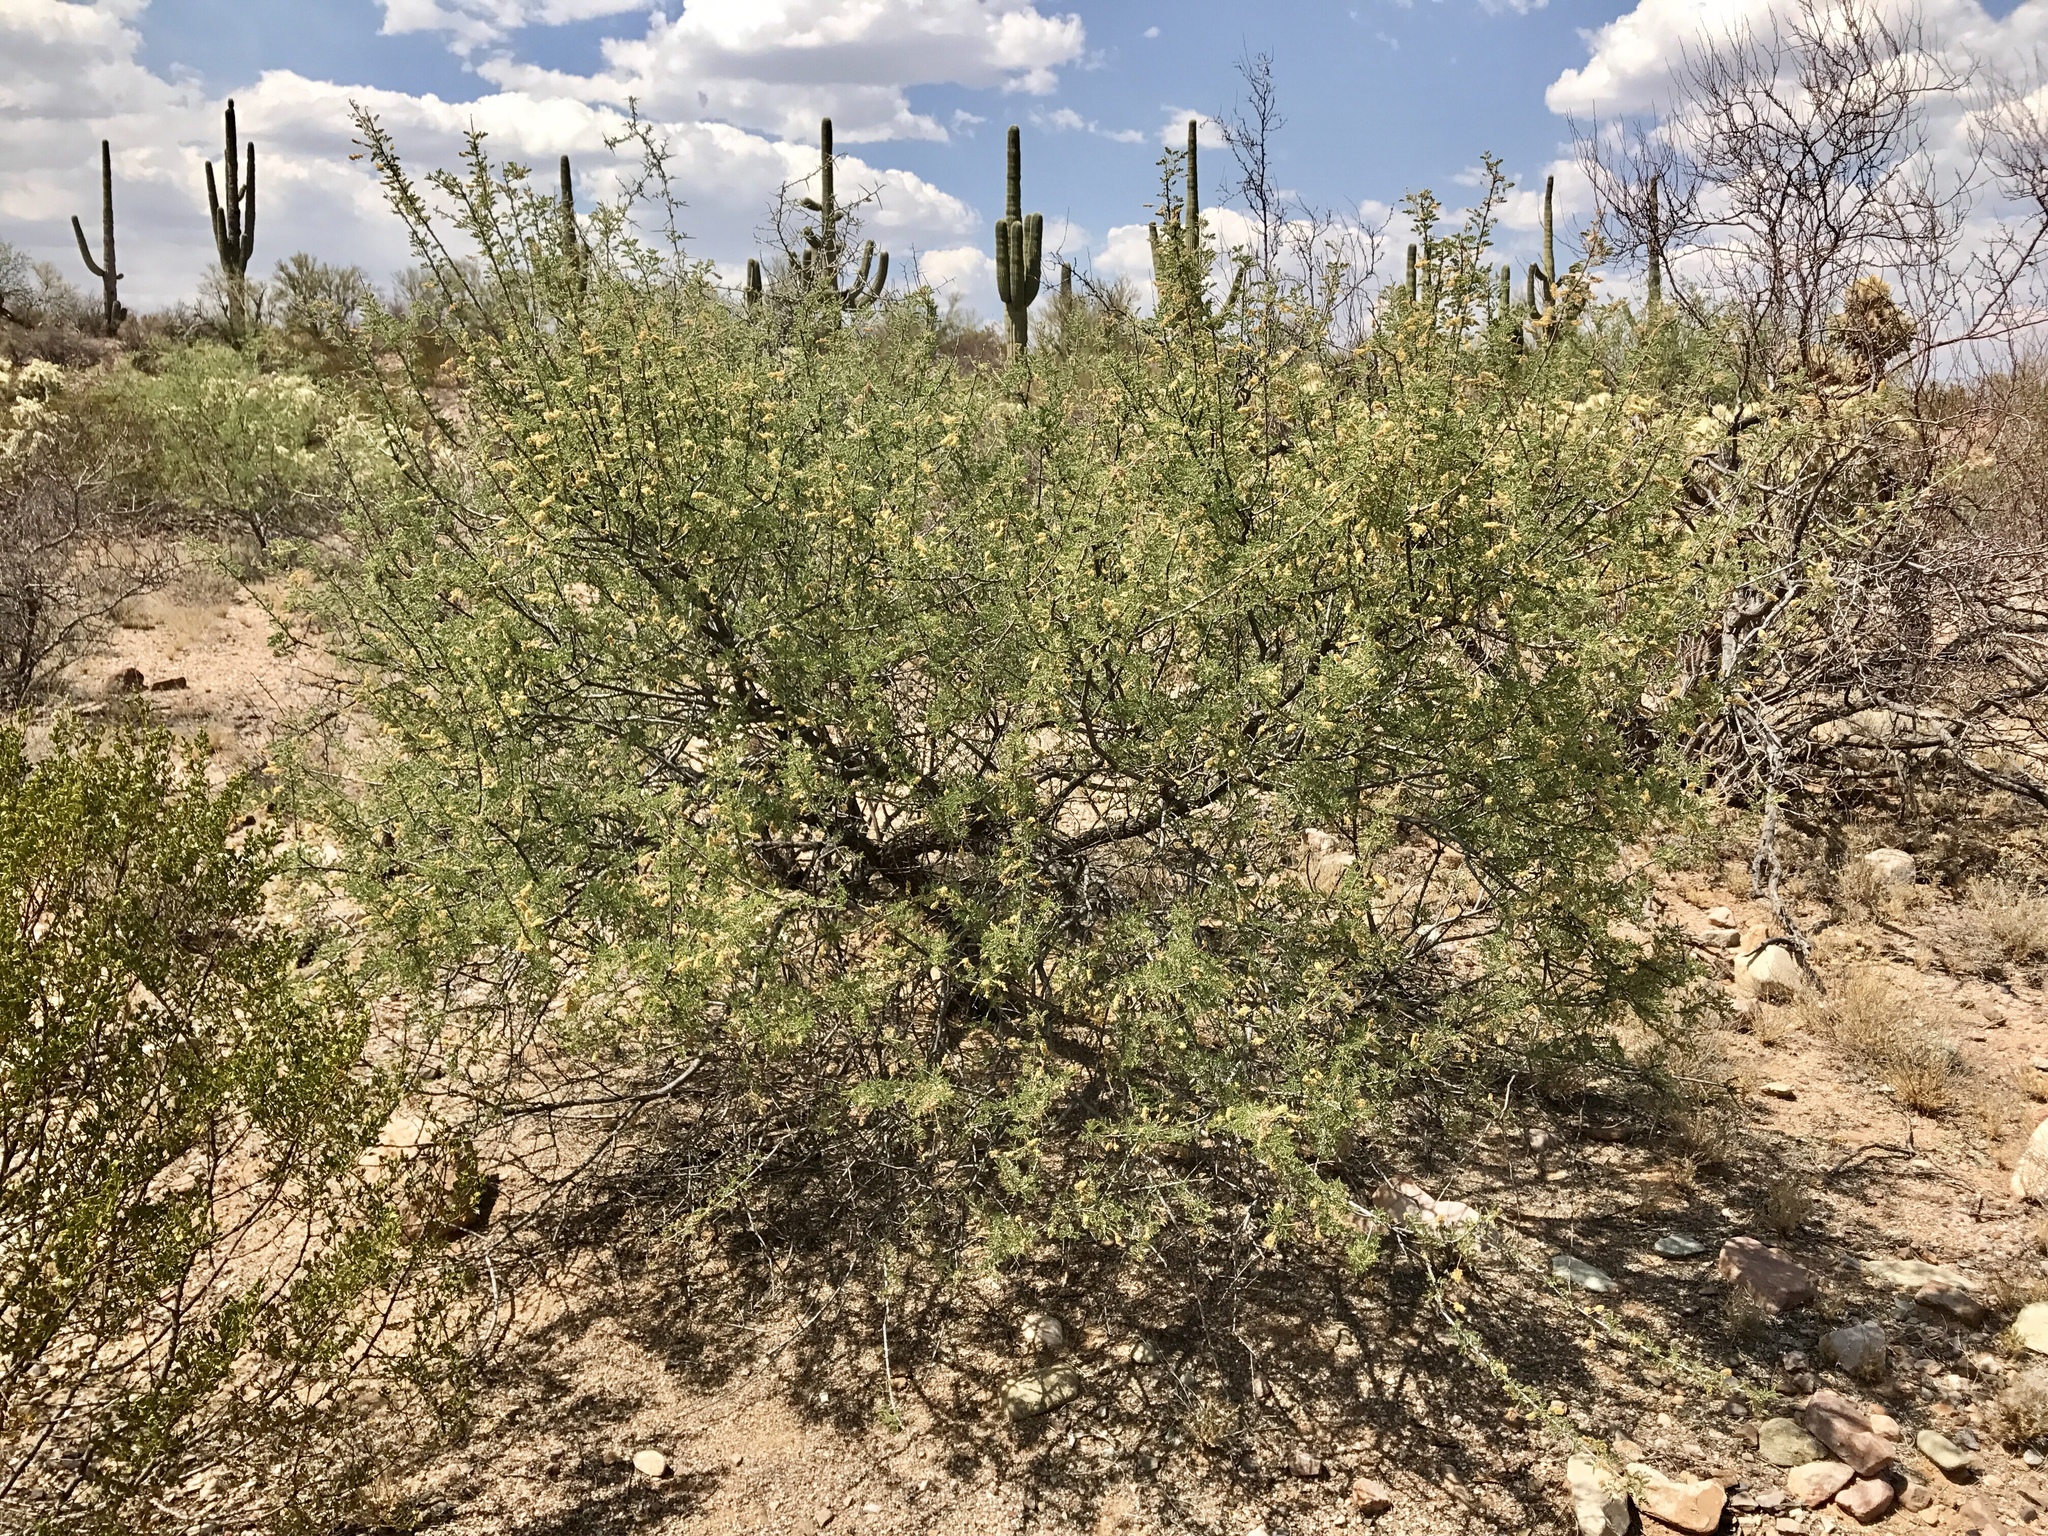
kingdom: Plantae
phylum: Tracheophyta
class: Magnoliopsida
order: Fabales
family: Fabaceae
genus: Senegalia
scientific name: Senegalia greggii
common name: Texas-mimosa
